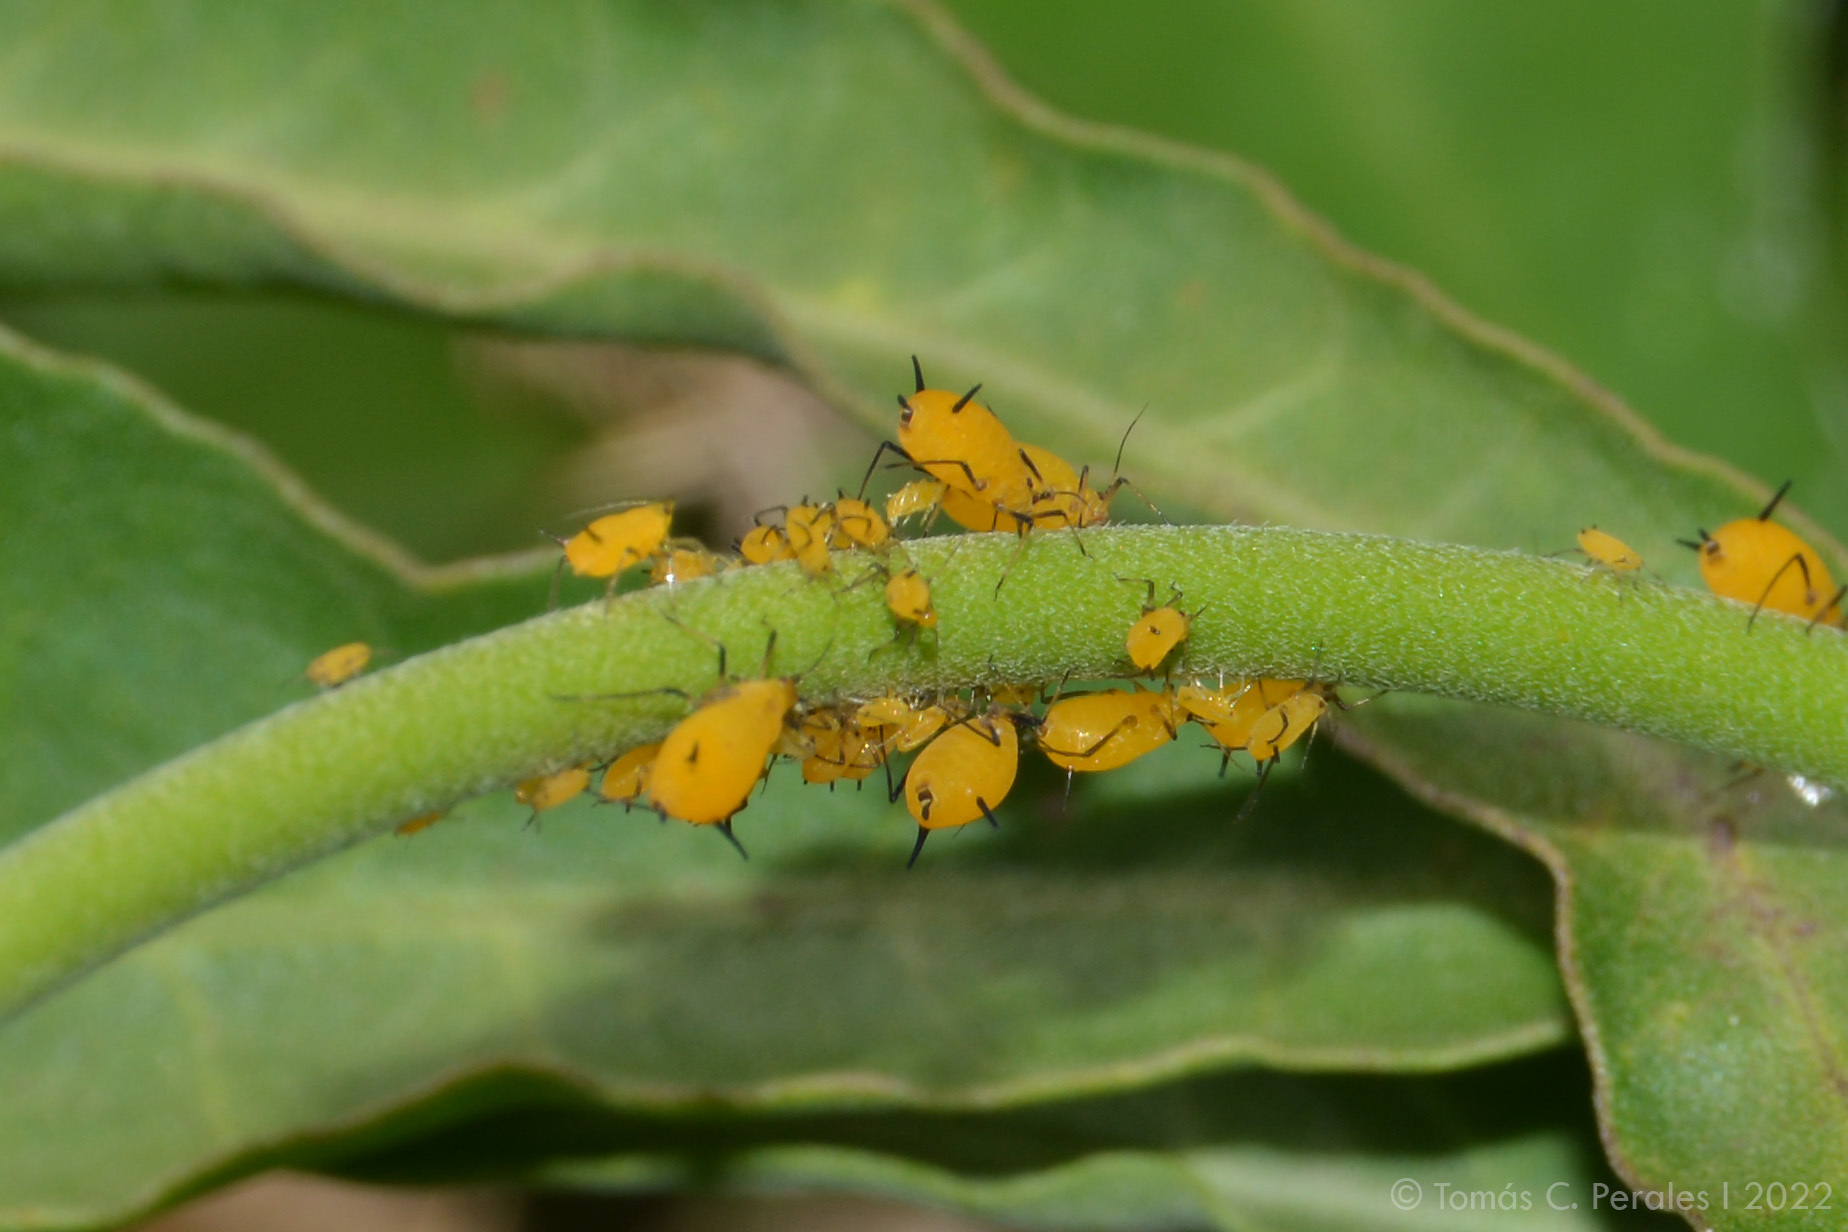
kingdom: Animalia
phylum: Arthropoda
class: Insecta
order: Hemiptera
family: Aphididae
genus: Aphis
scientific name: Aphis nerii
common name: Oleander aphid
